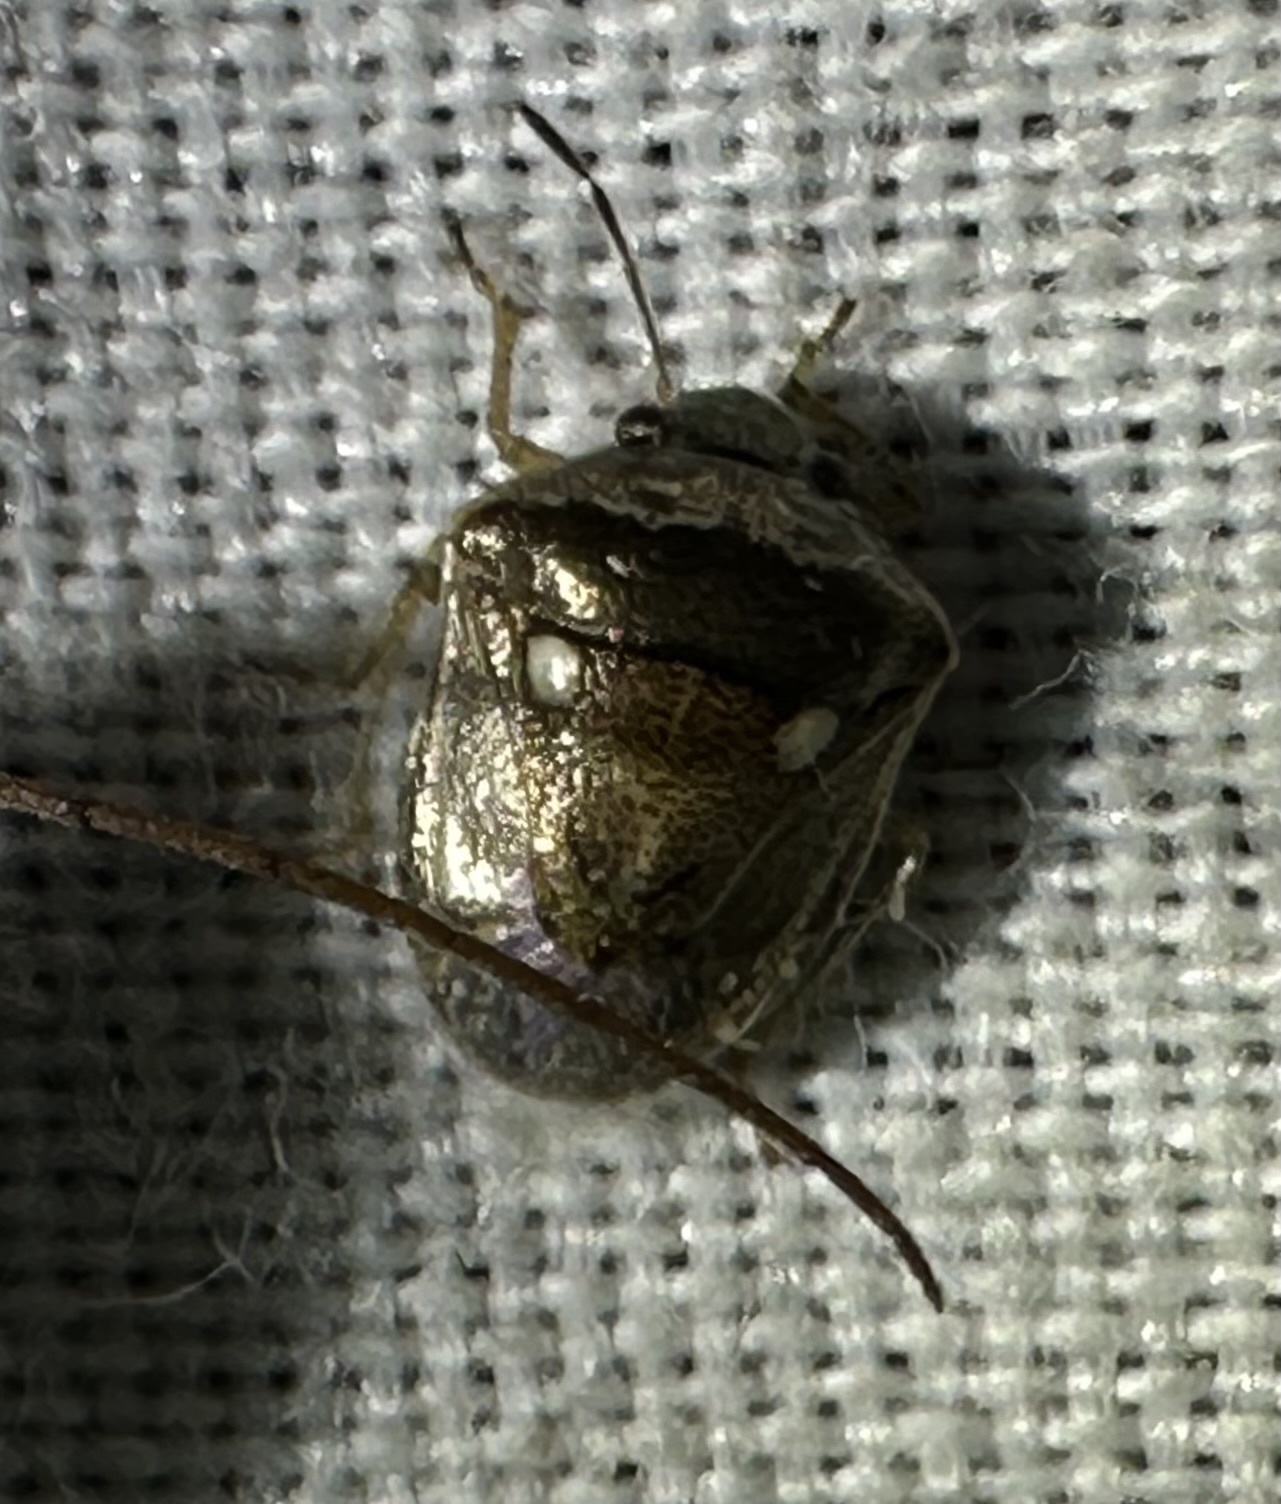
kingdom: Animalia
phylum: Arthropoda
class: Insecta
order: Hemiptera
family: Pentatomidae
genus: Eysarcoris
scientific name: Eysarcoris ventralis
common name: White-spotted stink bug
